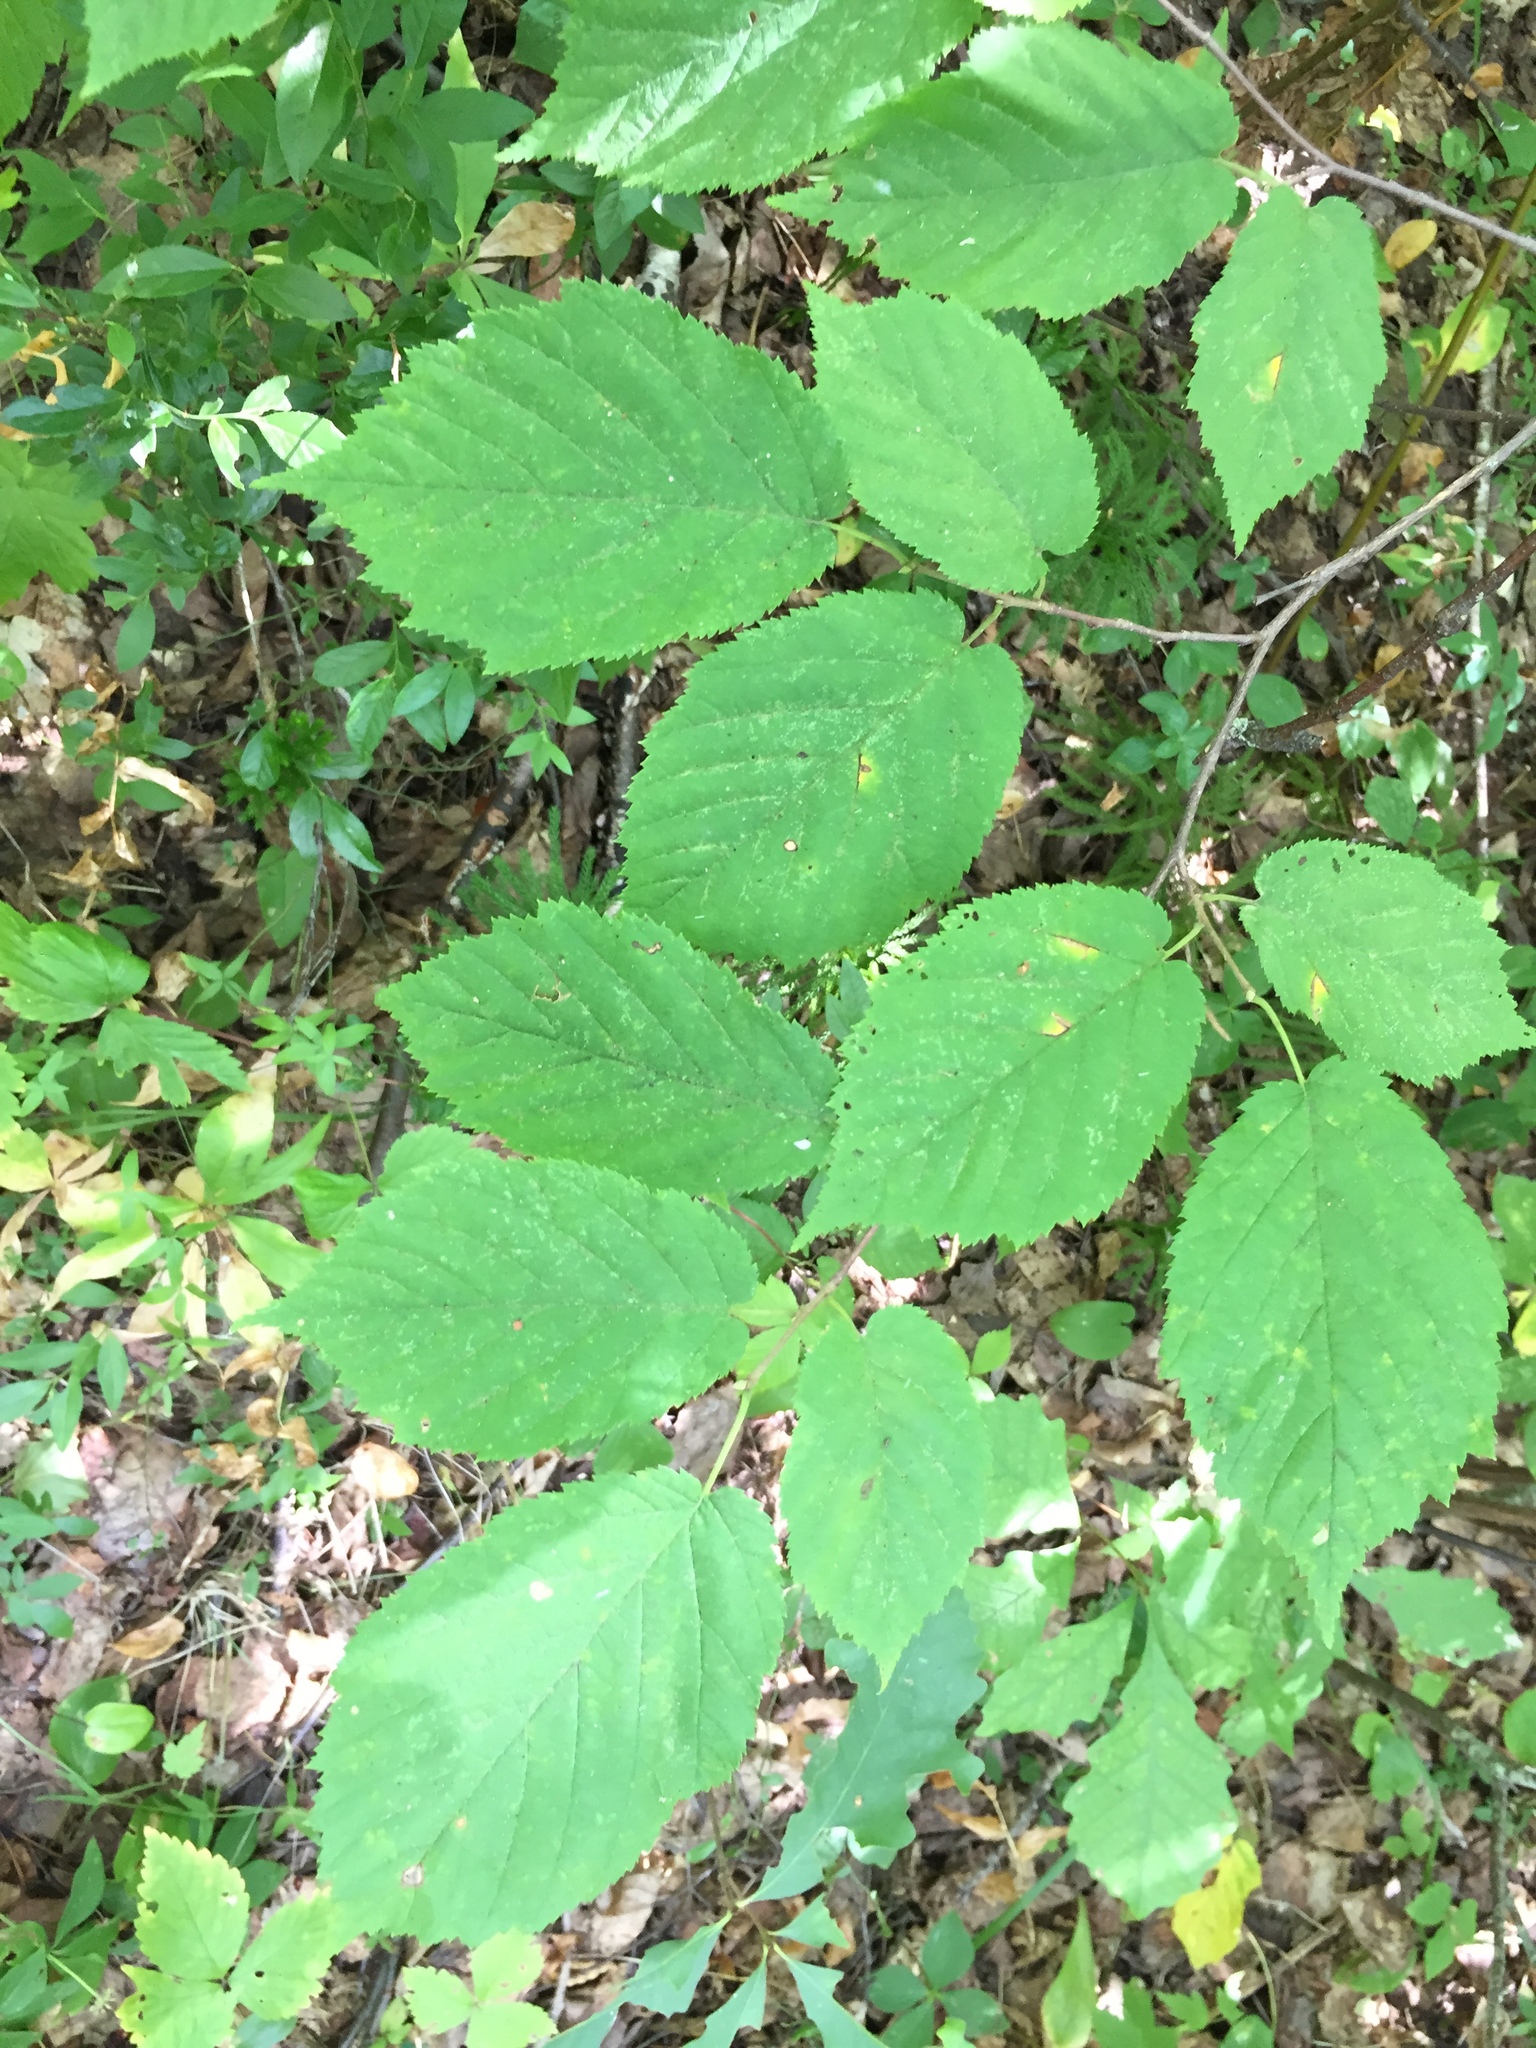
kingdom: Plantae
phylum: Tracheophyta
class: Magnoliopsida
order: Fagales
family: Betulaceae
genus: Corylus
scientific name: Corylus cornuta
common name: Beaked hazel
